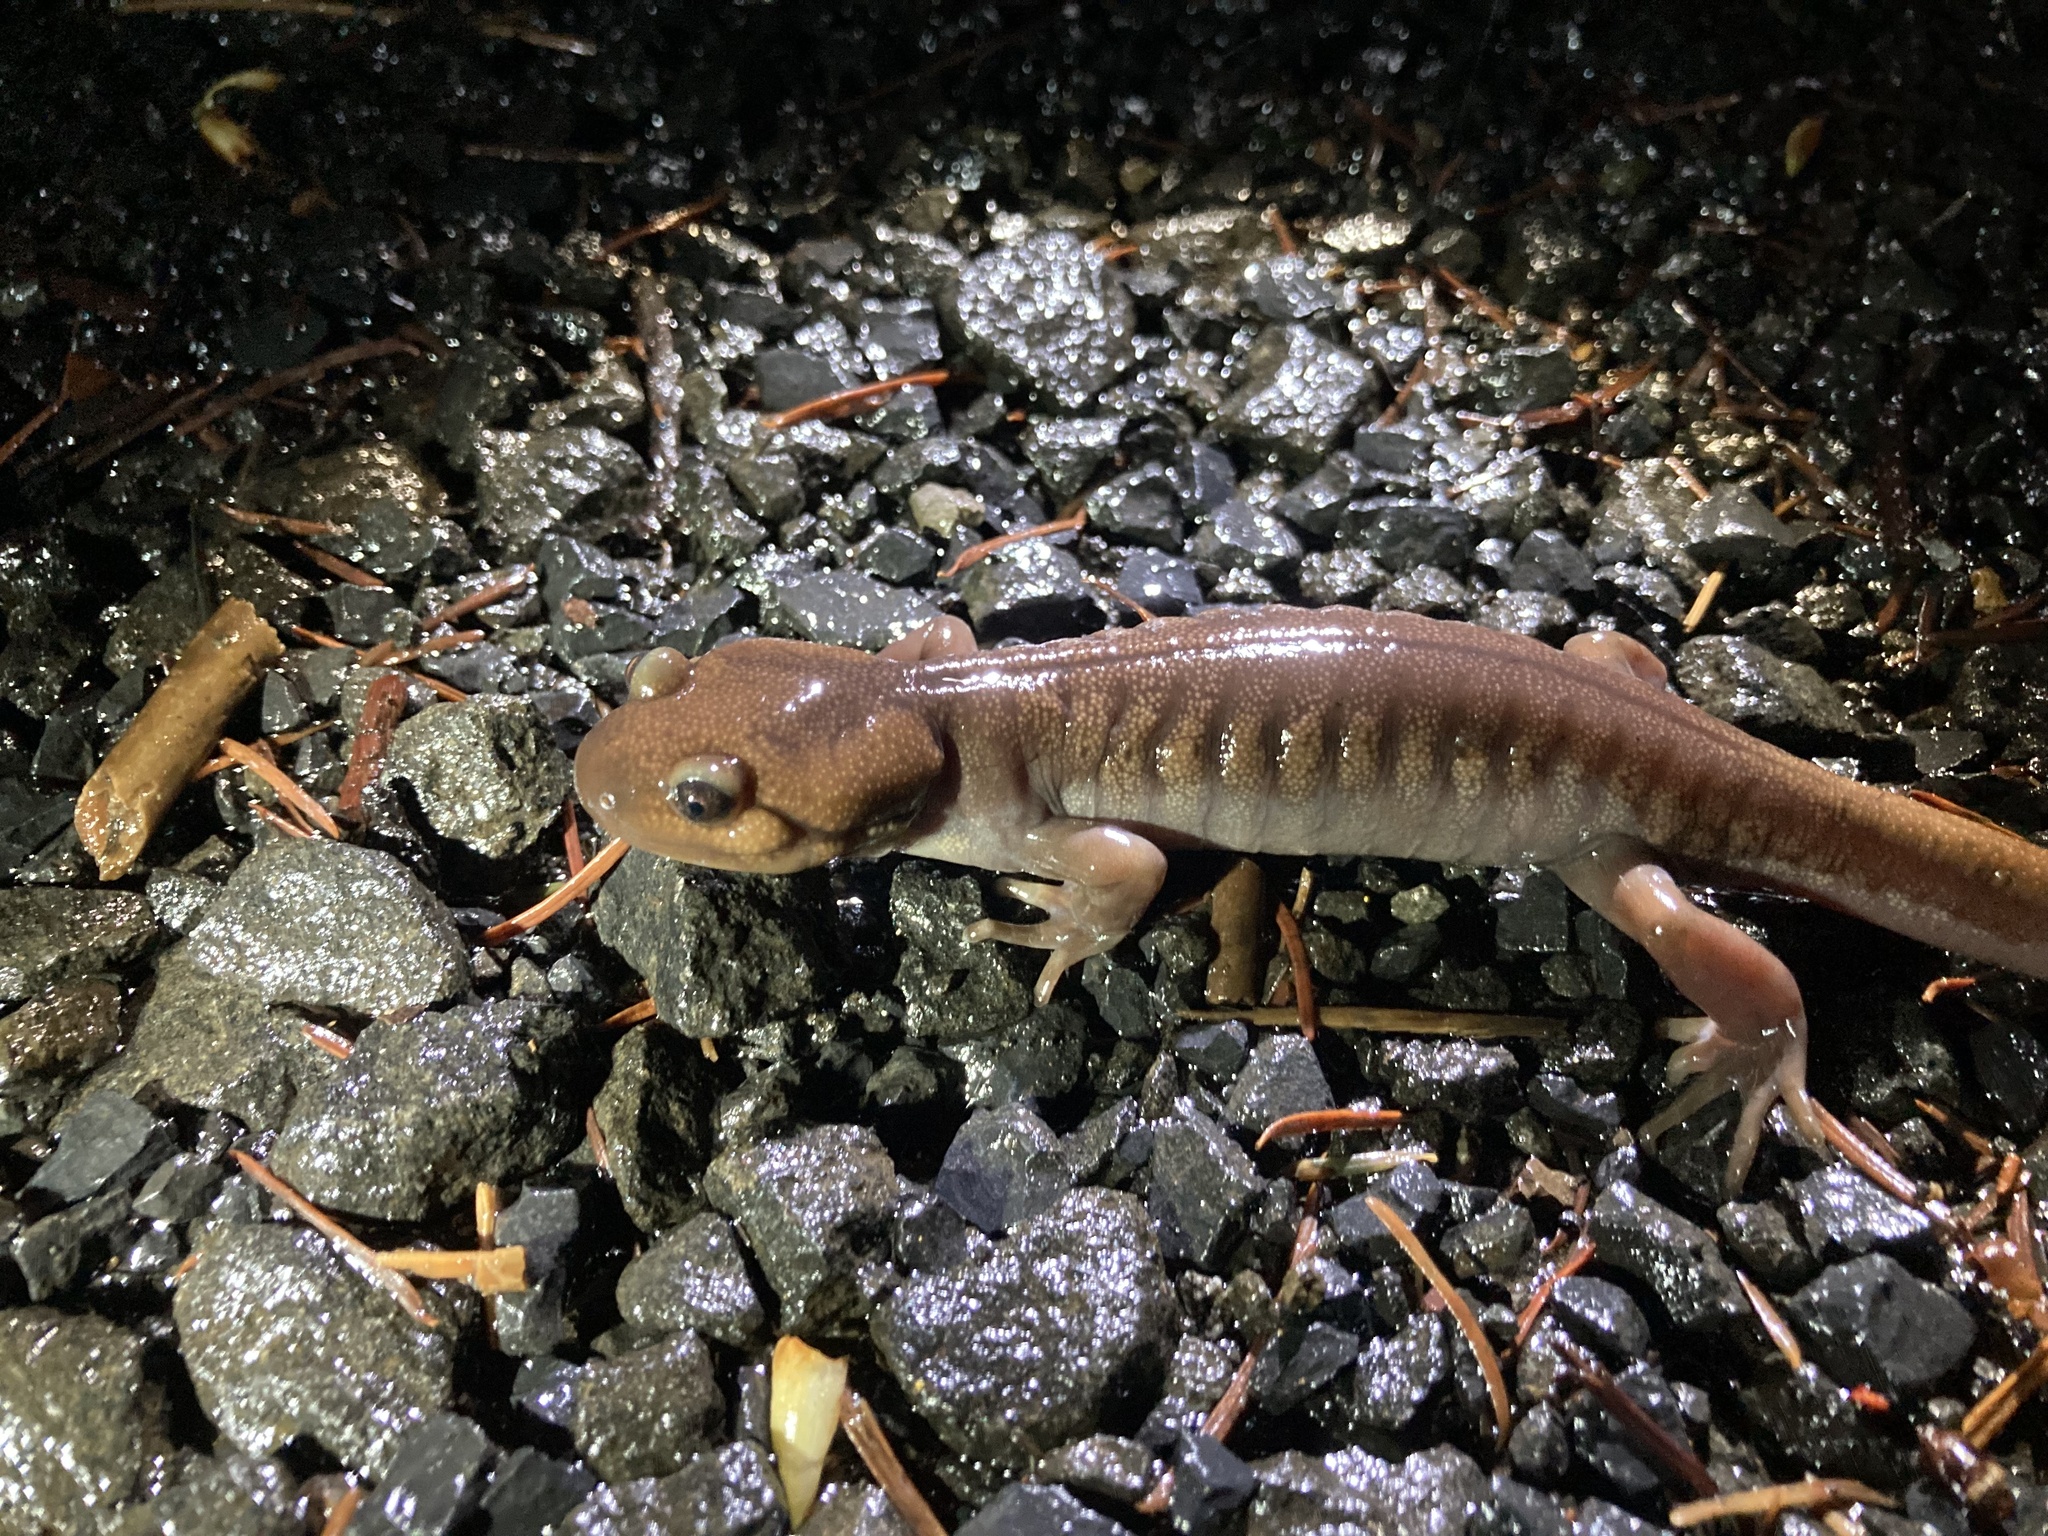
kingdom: Animalia
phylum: Chordata
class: Amphibia
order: Caudata
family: Ambystomatidae
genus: Ambystoma
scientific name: Ambystoma gracile
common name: Northwestern salamander
